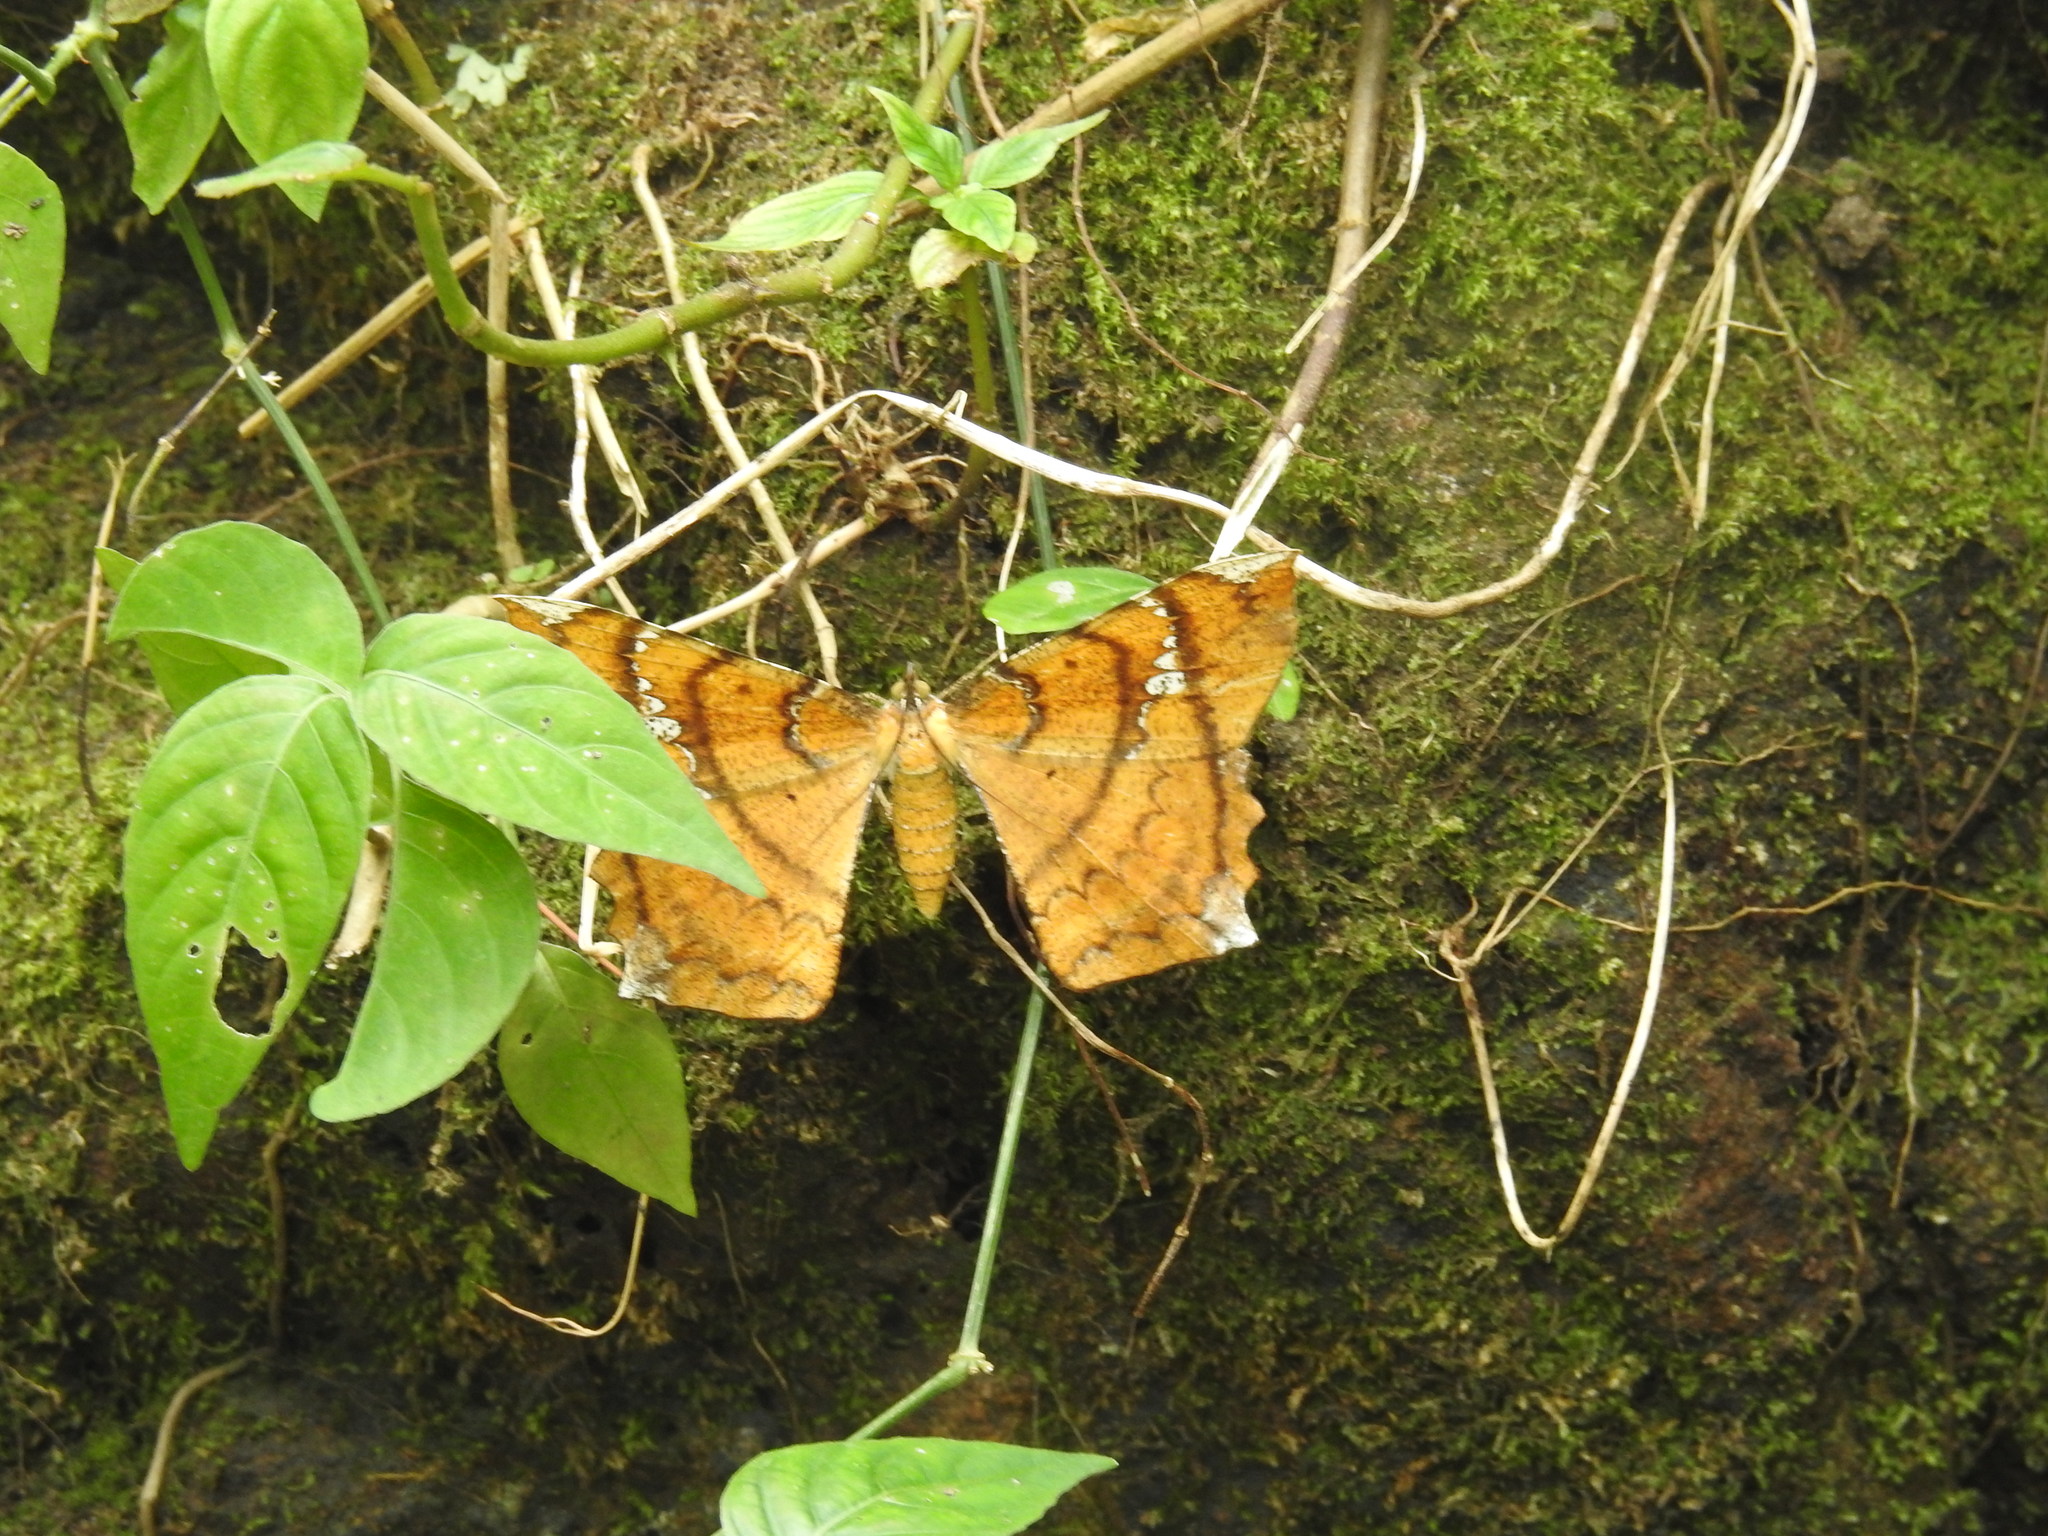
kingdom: Animalia
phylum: Arthropoda
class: Insecta
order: Lepidoptera
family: Geometridae
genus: Amblychia
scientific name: Amblychia angeronaria
